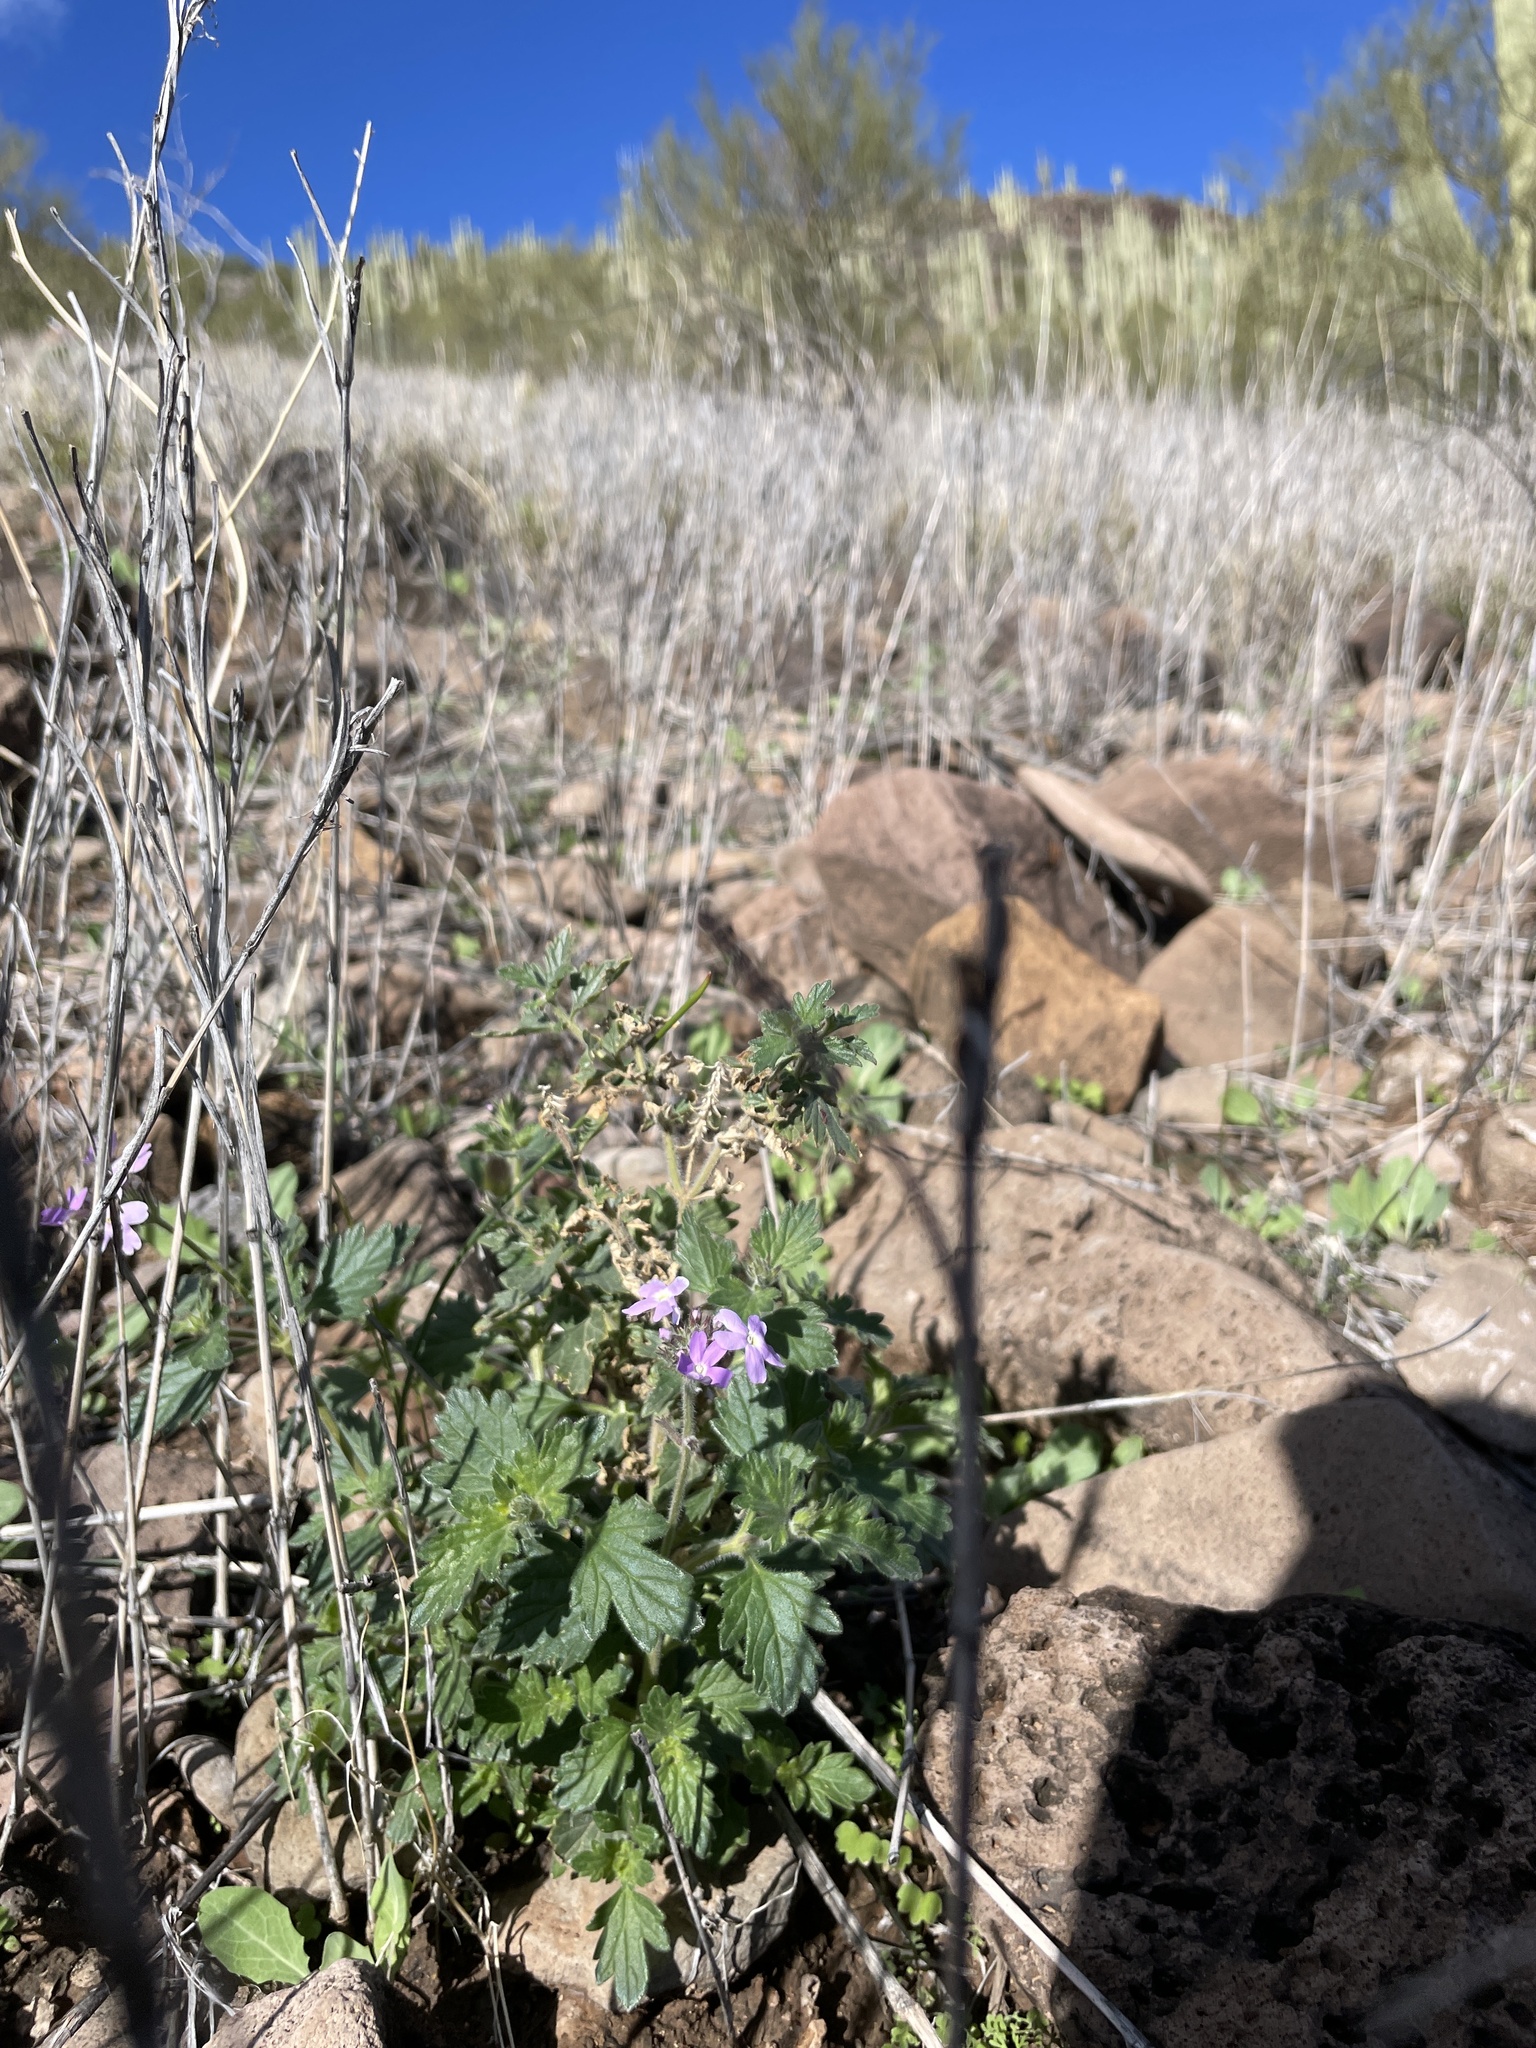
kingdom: Plantae
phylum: Tracheophyta
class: Magnoliopsida
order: Lamiales
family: Verbenaceae
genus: Verbena
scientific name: Verbena gooddingii
